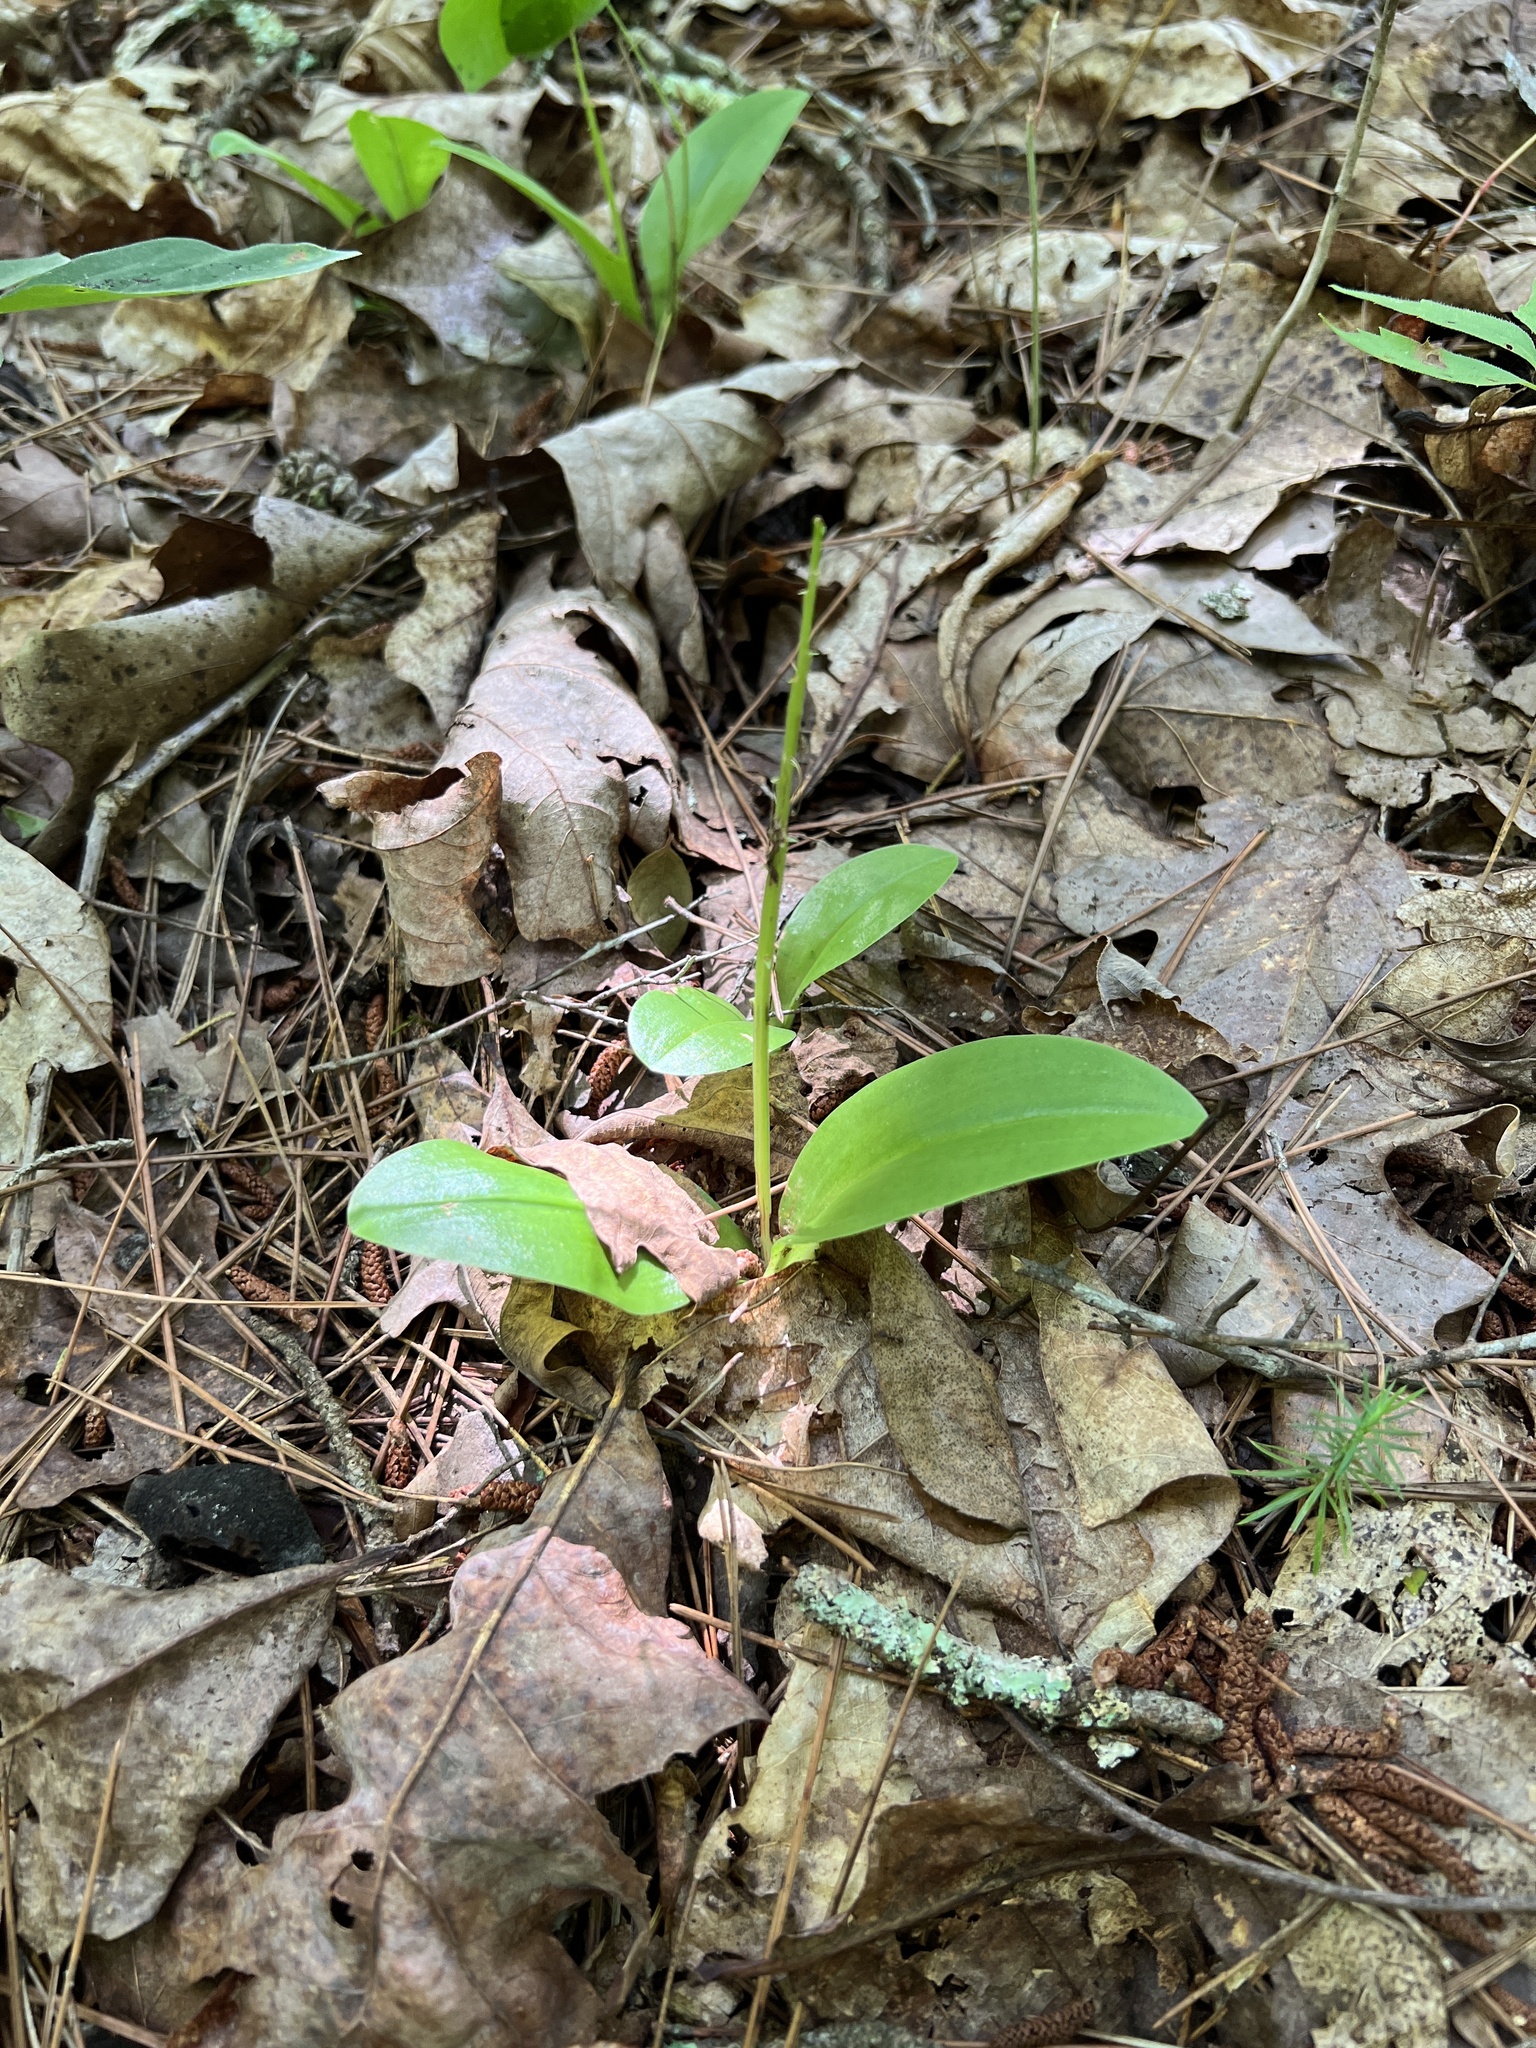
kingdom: Plantae
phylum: Tracheophyta
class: Liliopsida
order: Asparagales
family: Orchidaceae
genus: Liparis
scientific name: Liparis liliifolia
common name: Brown wide-lip orchid
